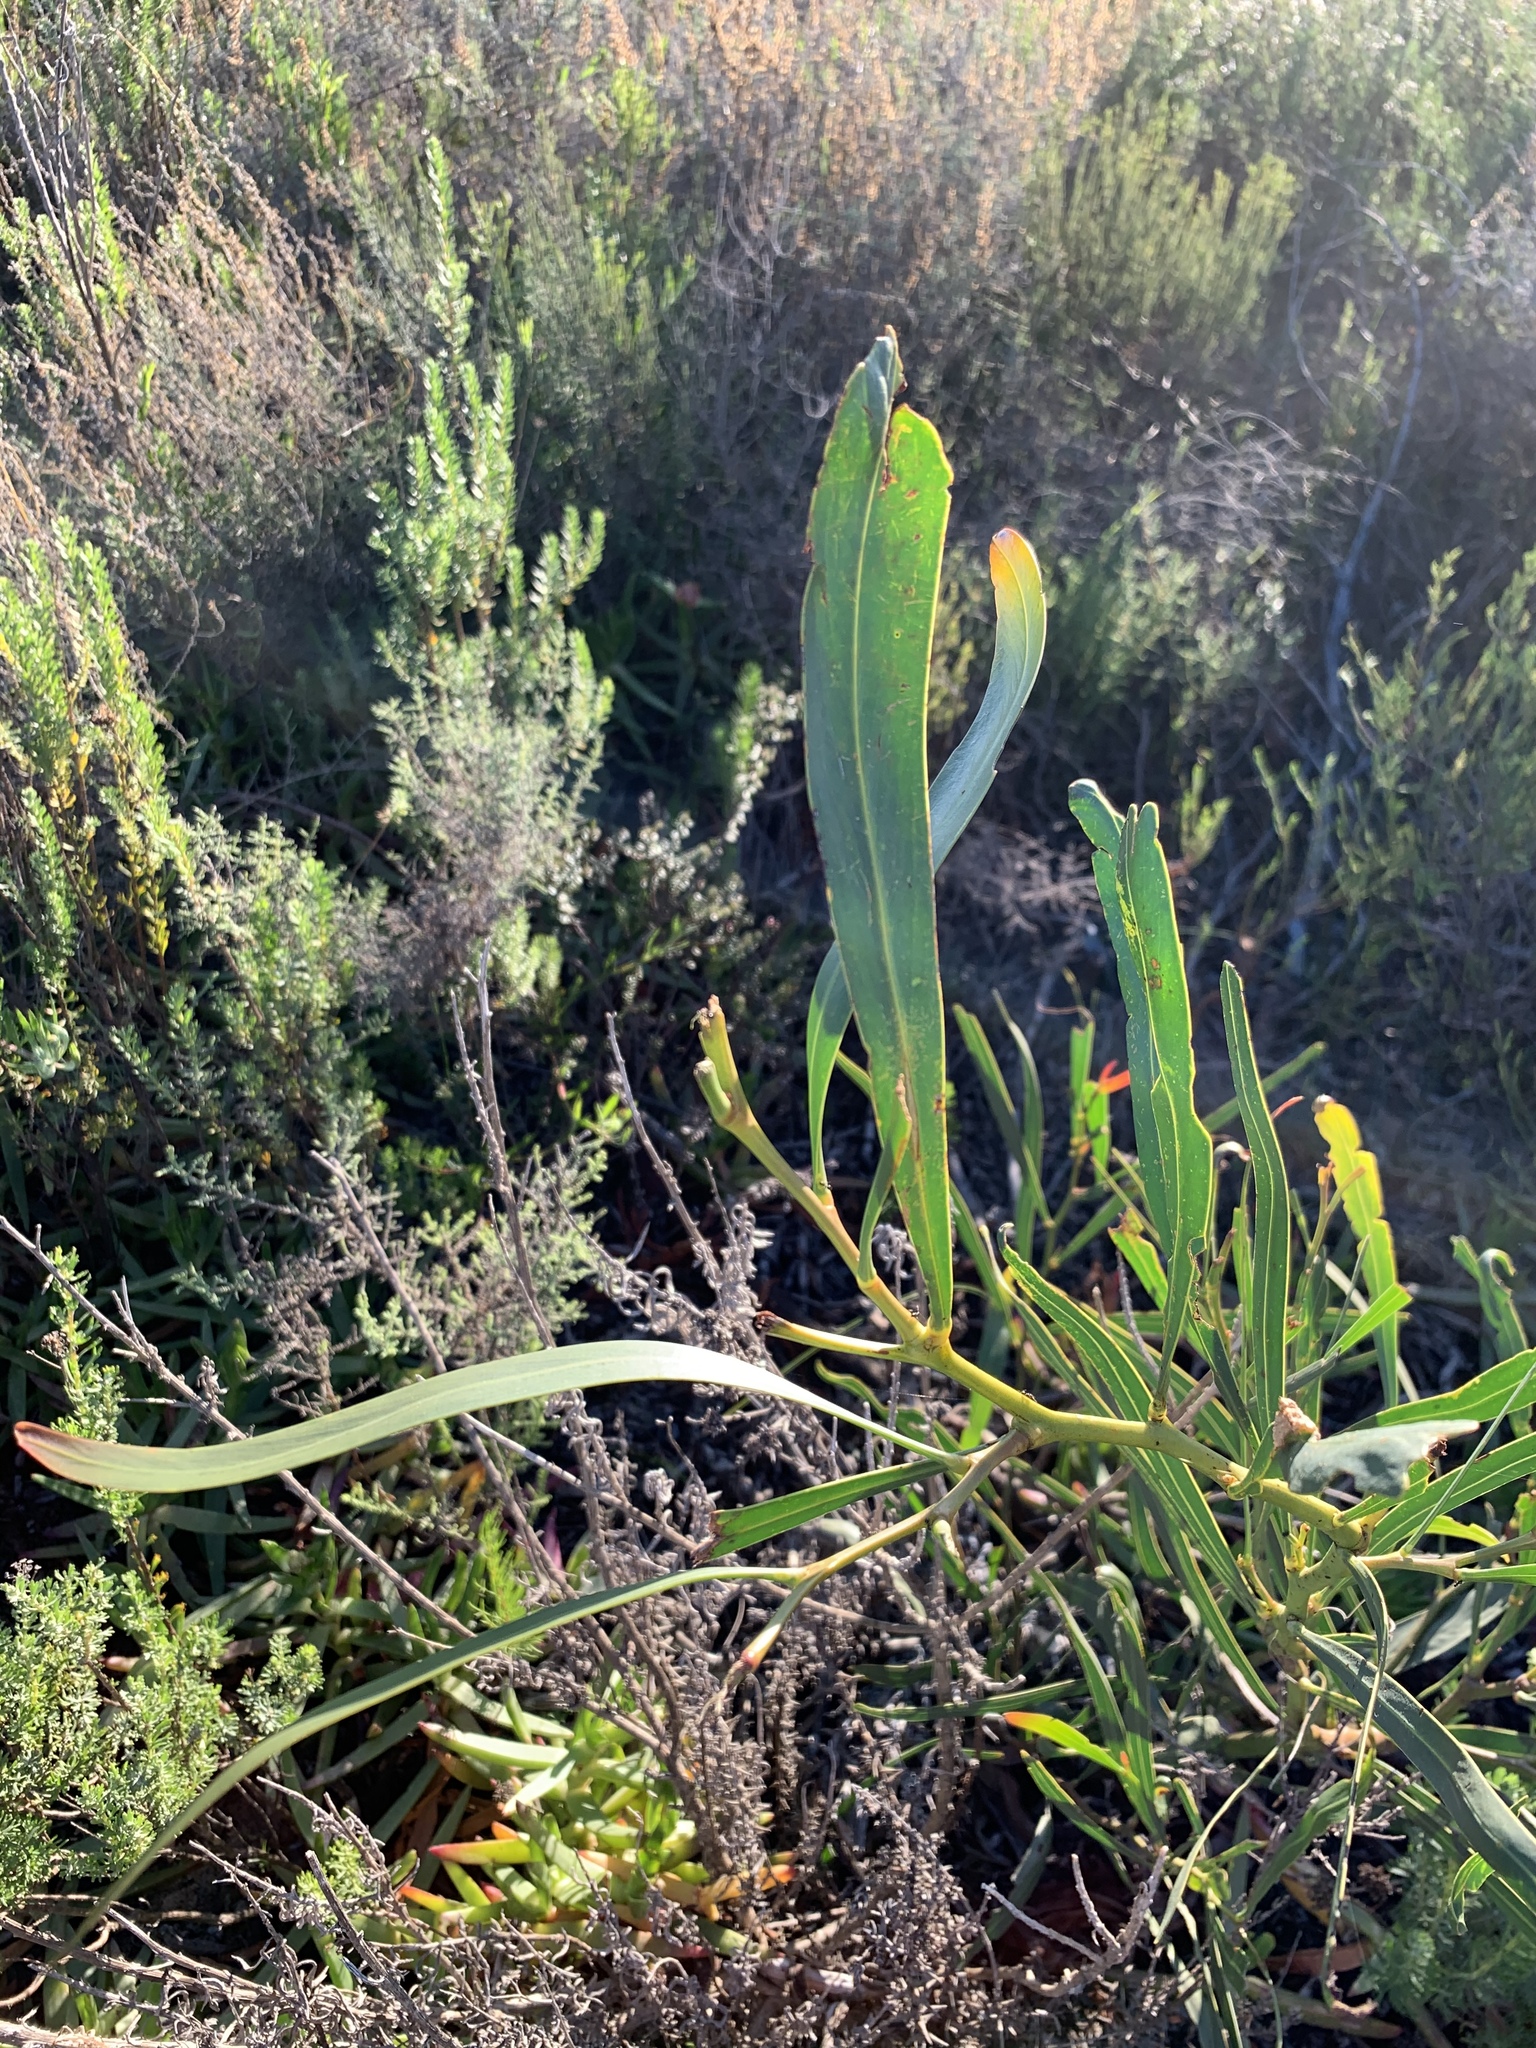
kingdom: Plantae
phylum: Tracheophyta
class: Magnoliopsida
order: Fabales
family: Fabaceae
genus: Acacia
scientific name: Acacia saligna
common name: Orange wattle
